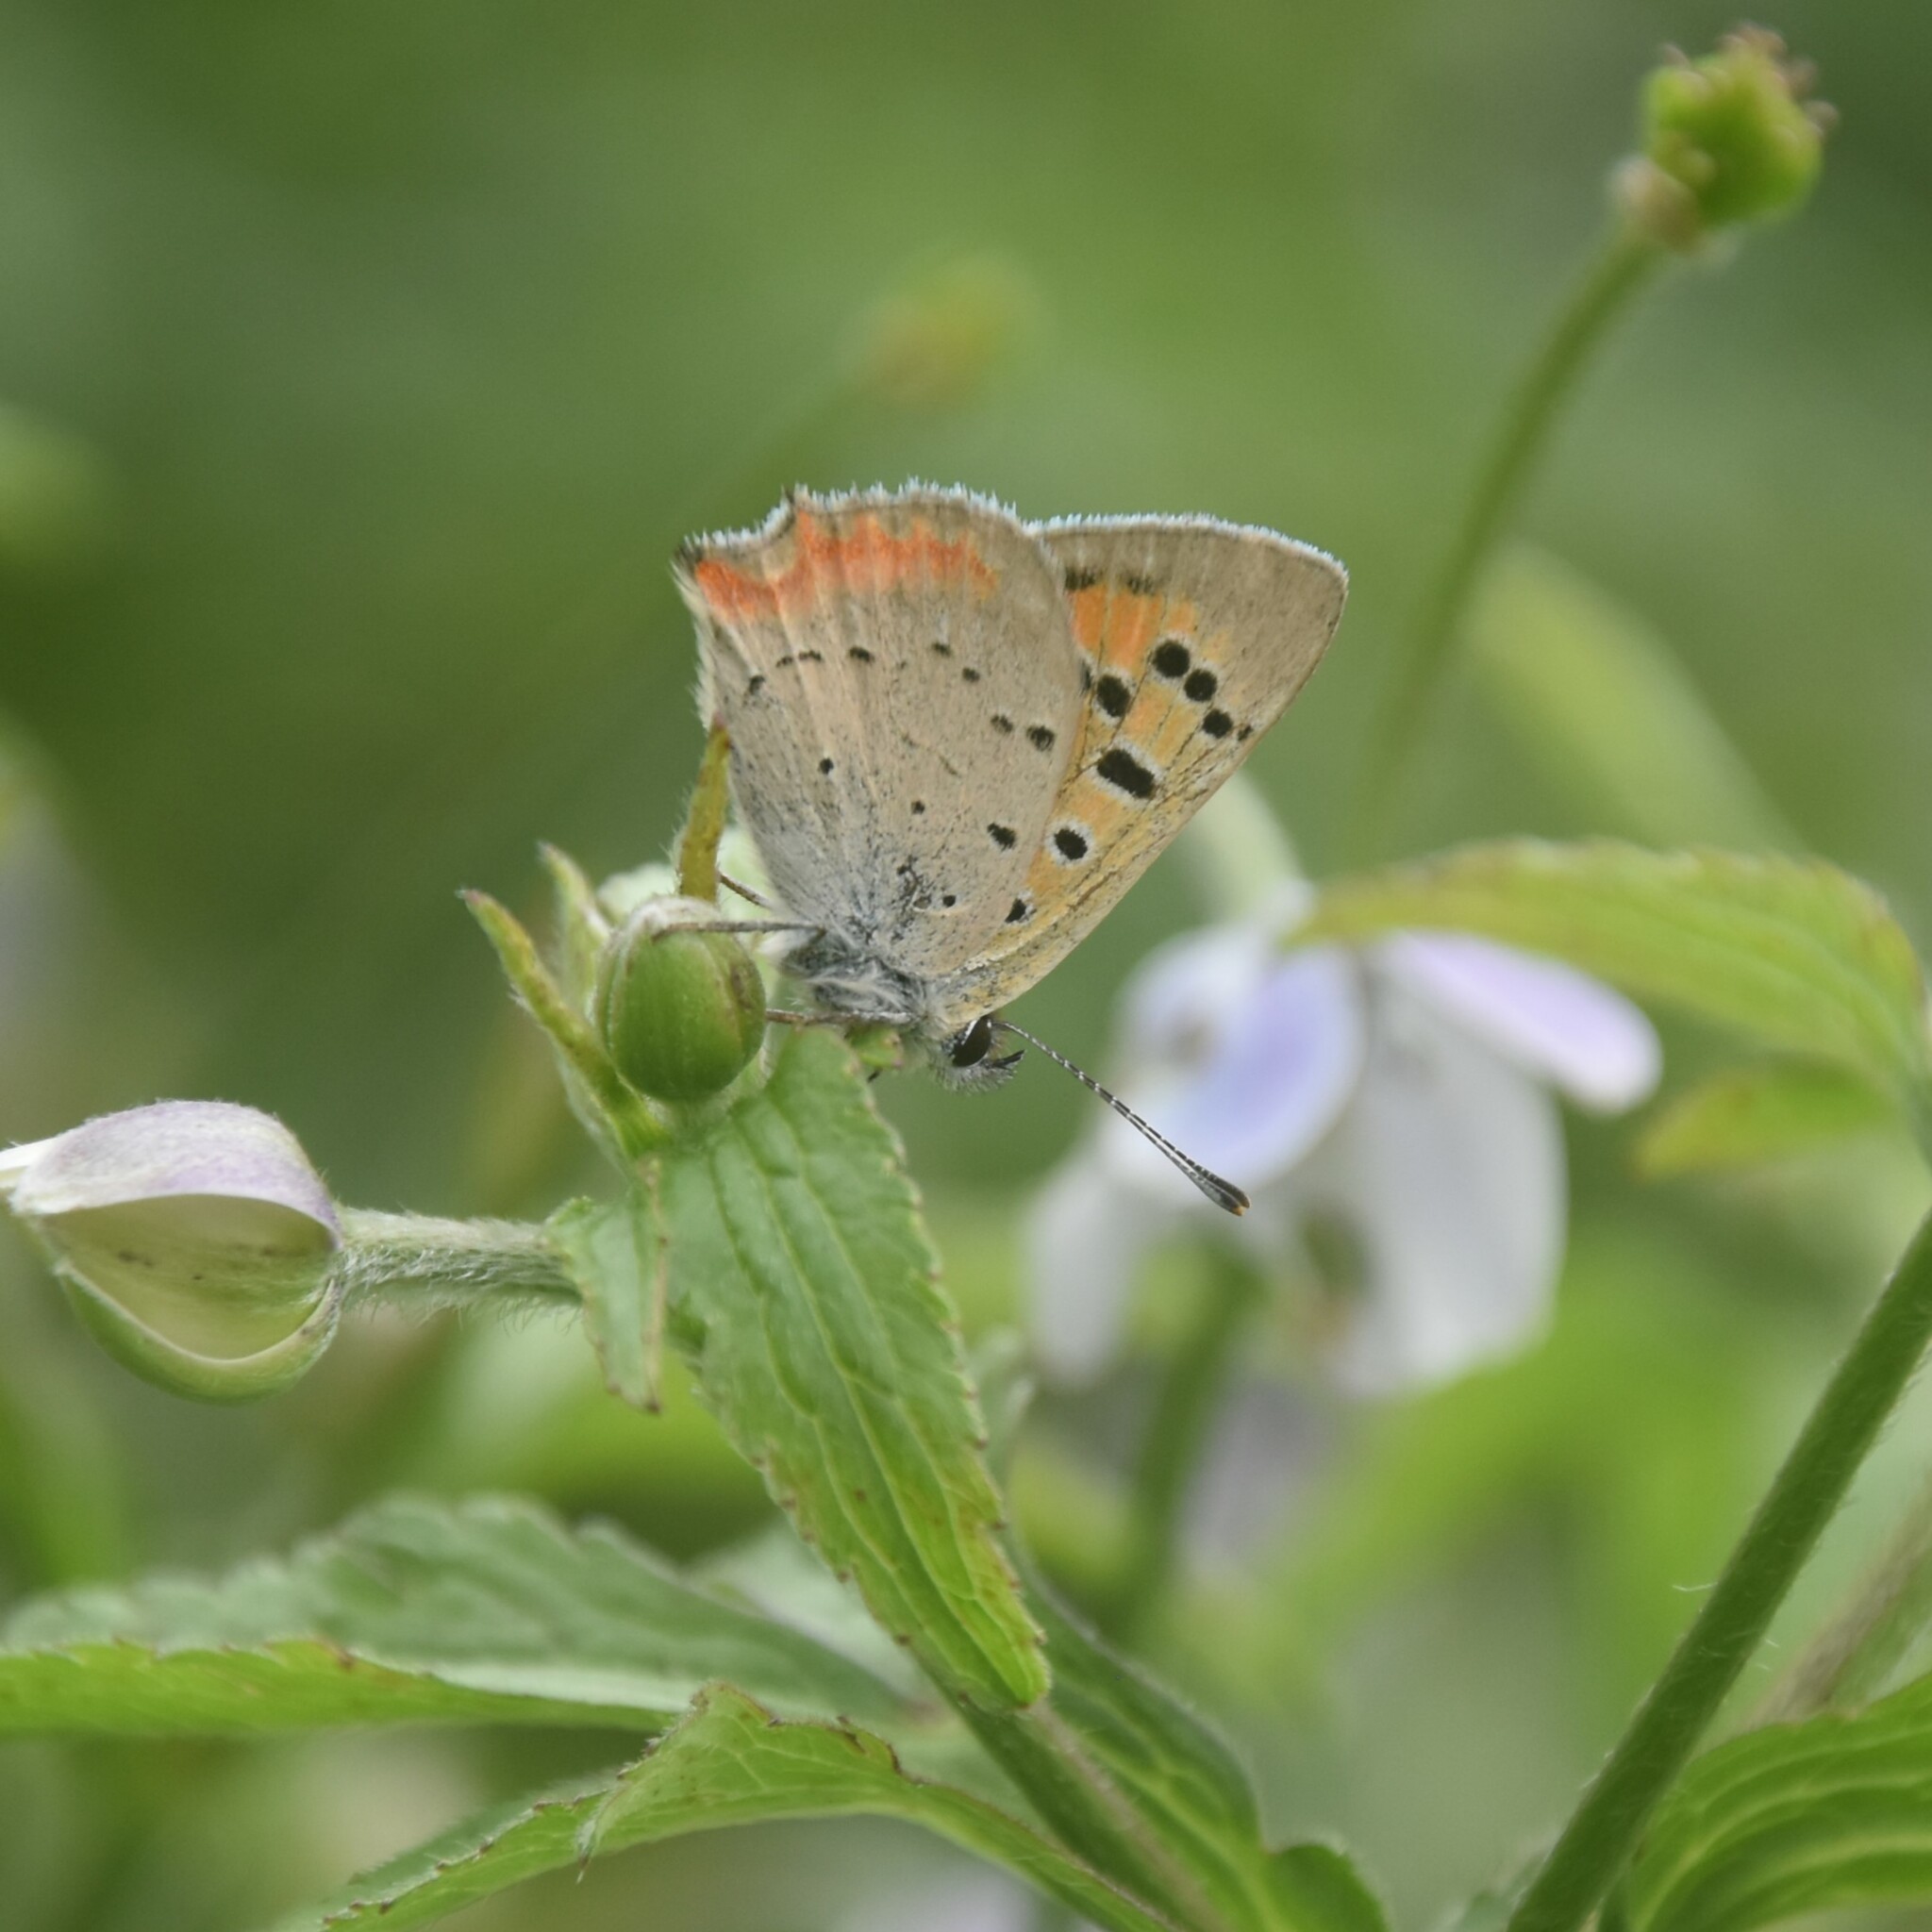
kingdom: Animalia
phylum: Arthropoda
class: Insecta
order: Lepidoptera
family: Lycaenidae
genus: Lycaena
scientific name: Lycaena phlaeas
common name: Small copper
